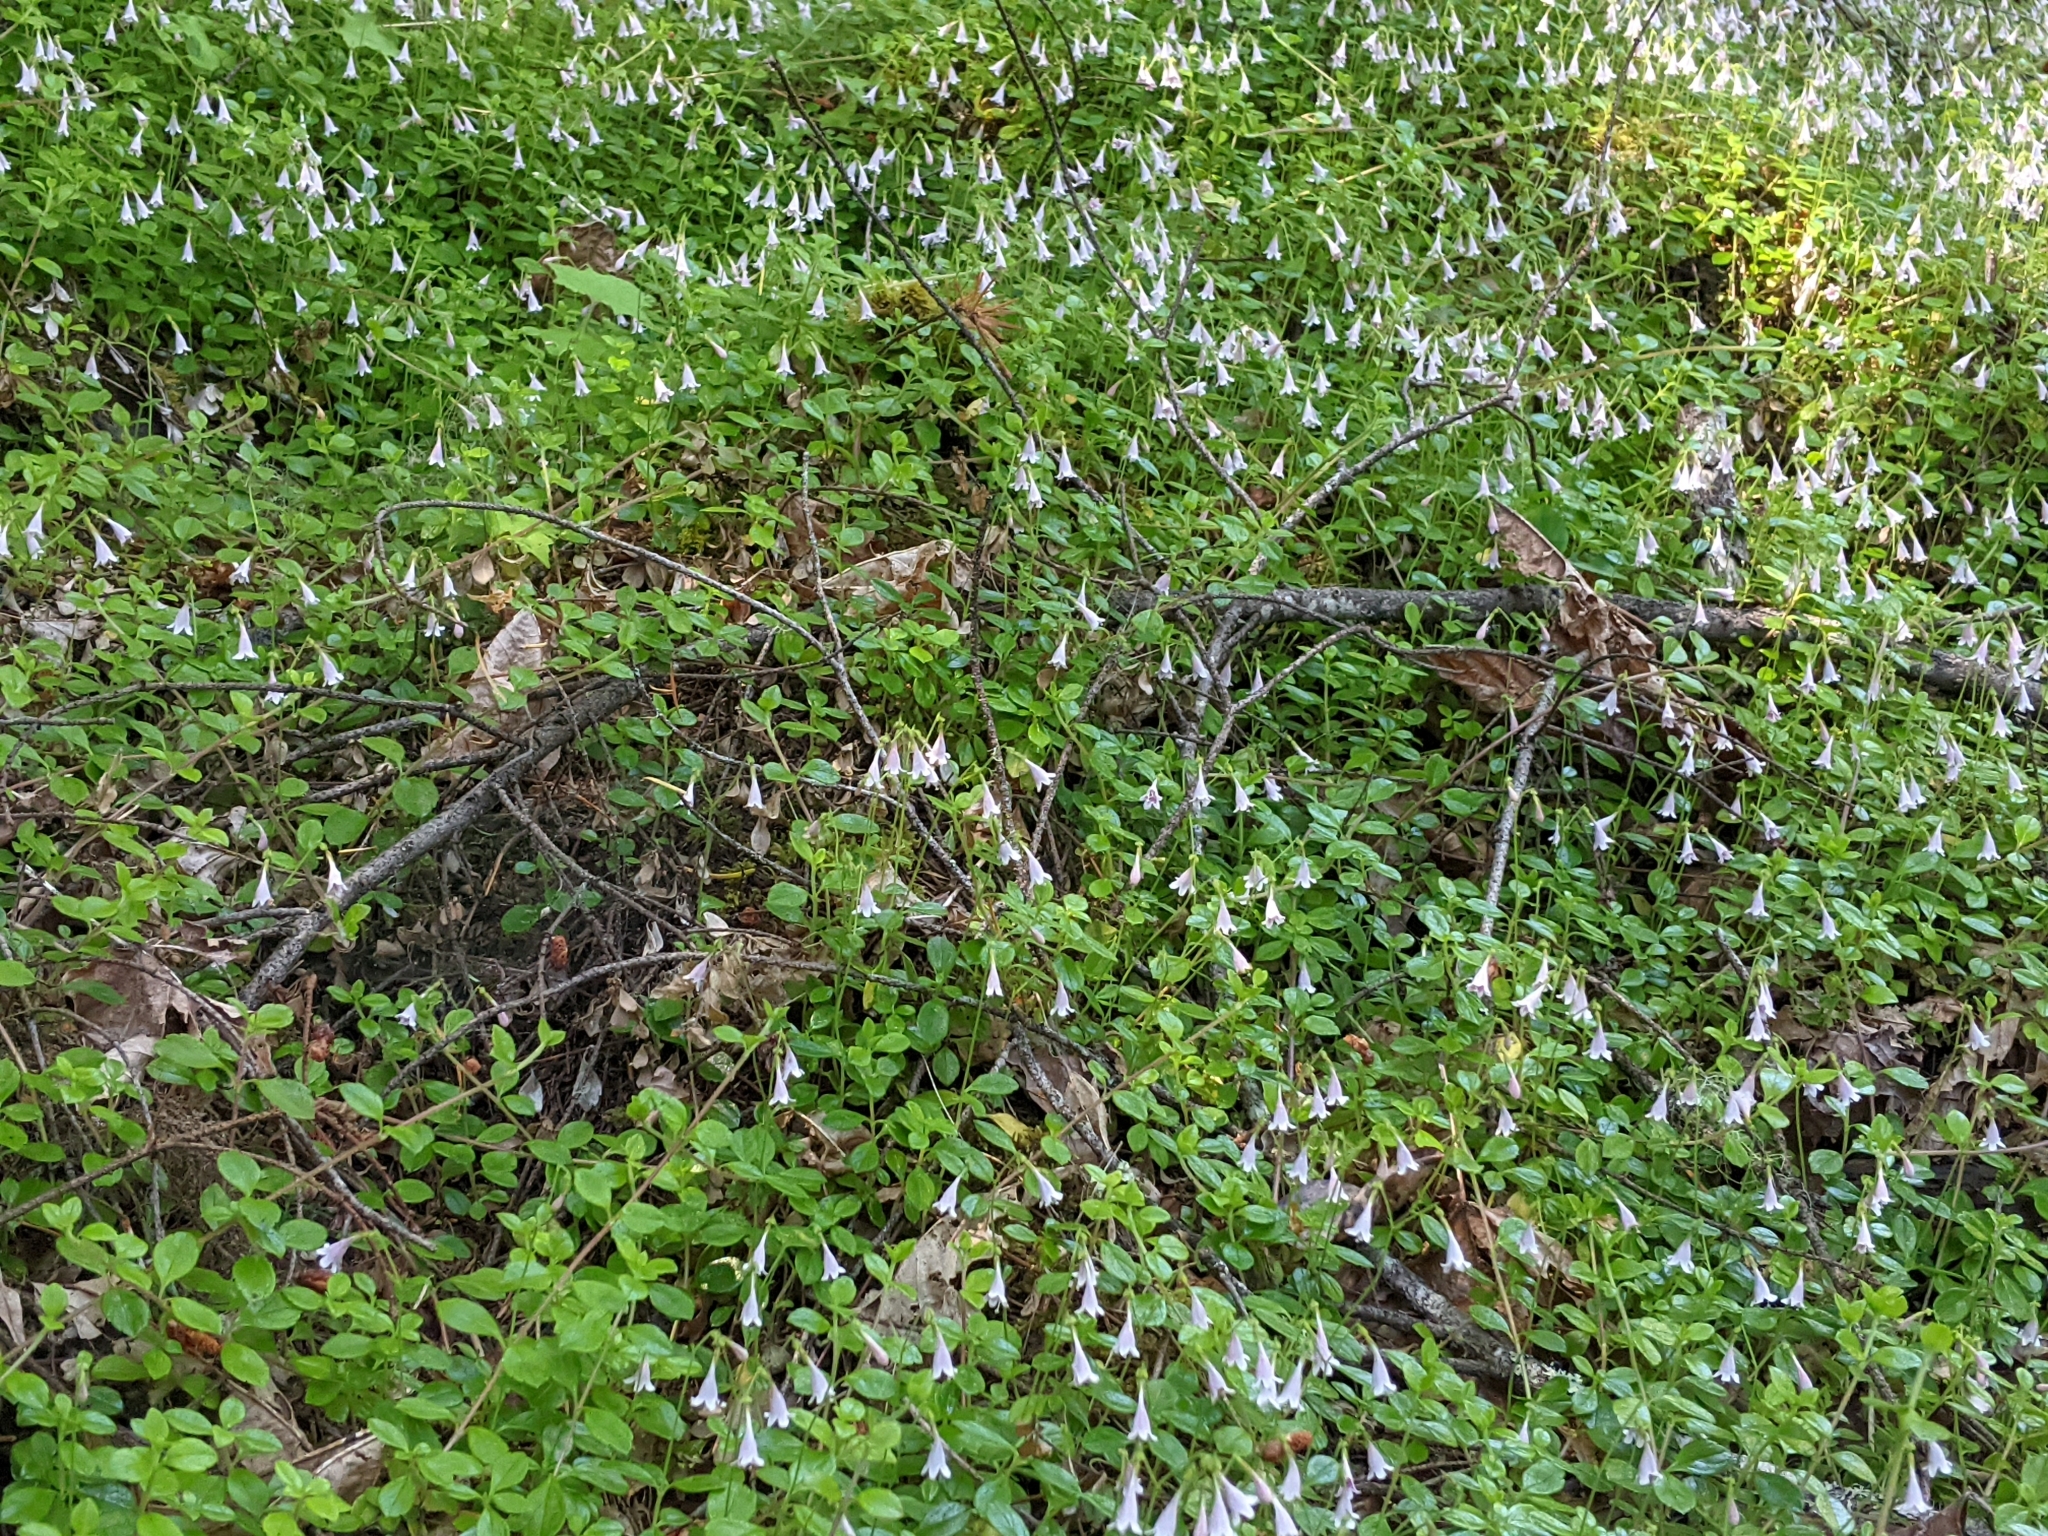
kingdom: Plantae
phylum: Tracheophyta
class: Magnoliopsida
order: Dipsacales
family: Caprifoliaceae
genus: Linnaea
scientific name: Linnaea borealis
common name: Twinflower
